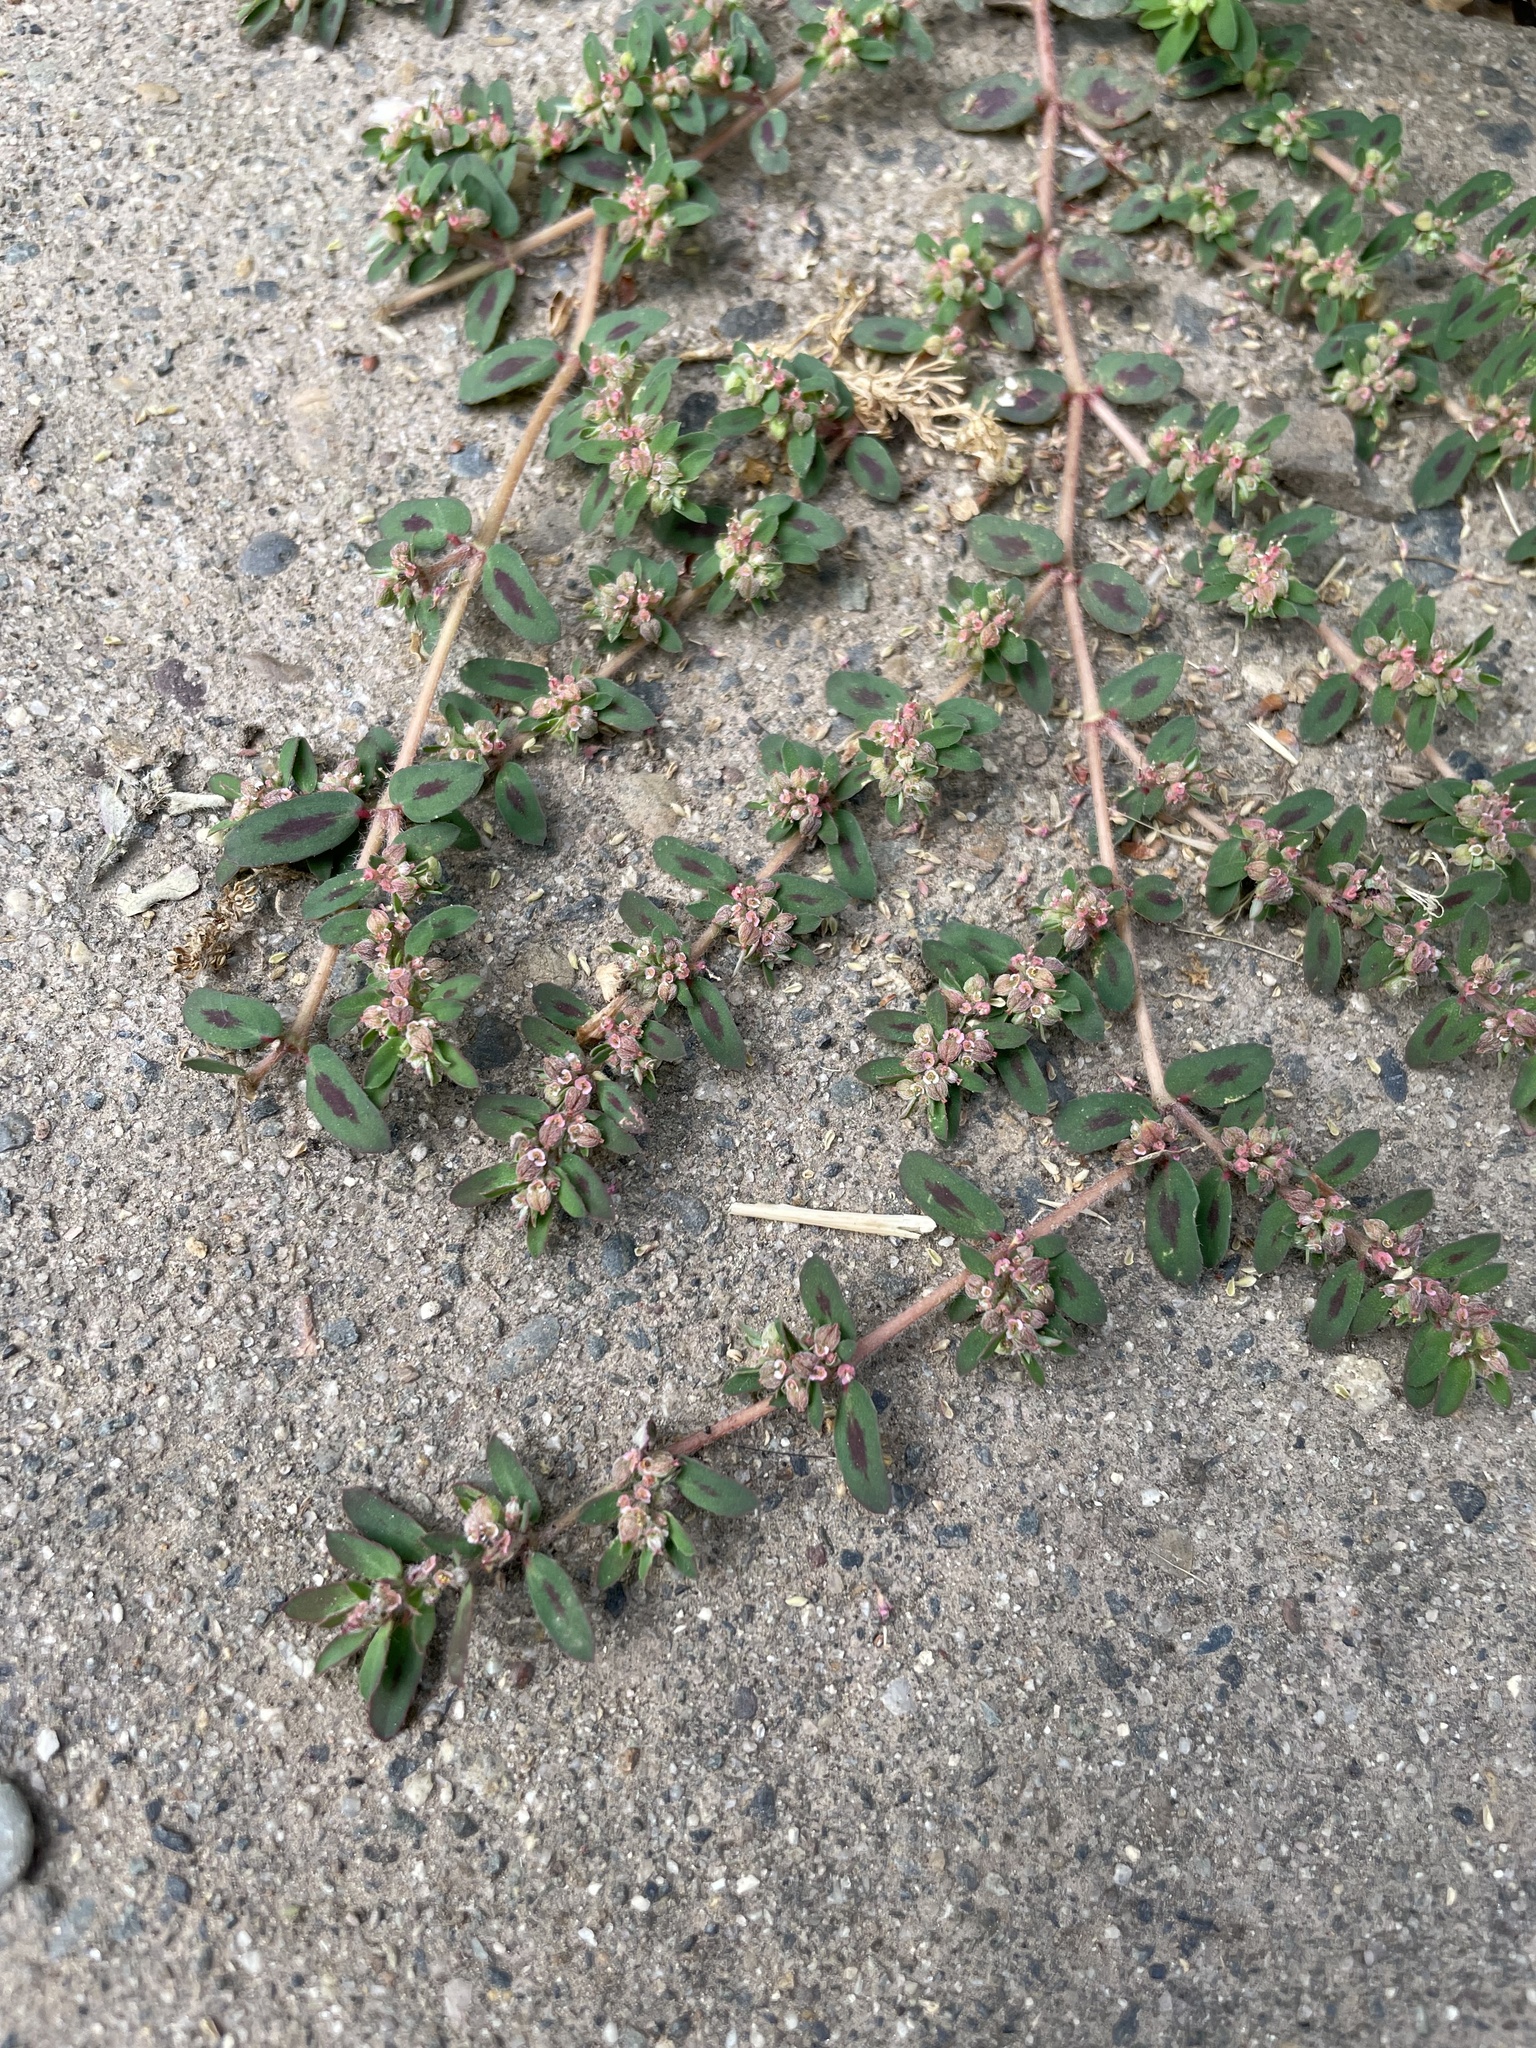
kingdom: Plantae
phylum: Tracheophyta
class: Magnoliopsida
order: Malpighiales
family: Euphorbiaceae
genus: Euphorbia
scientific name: Euphorbia maculata
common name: Spotted spurge
